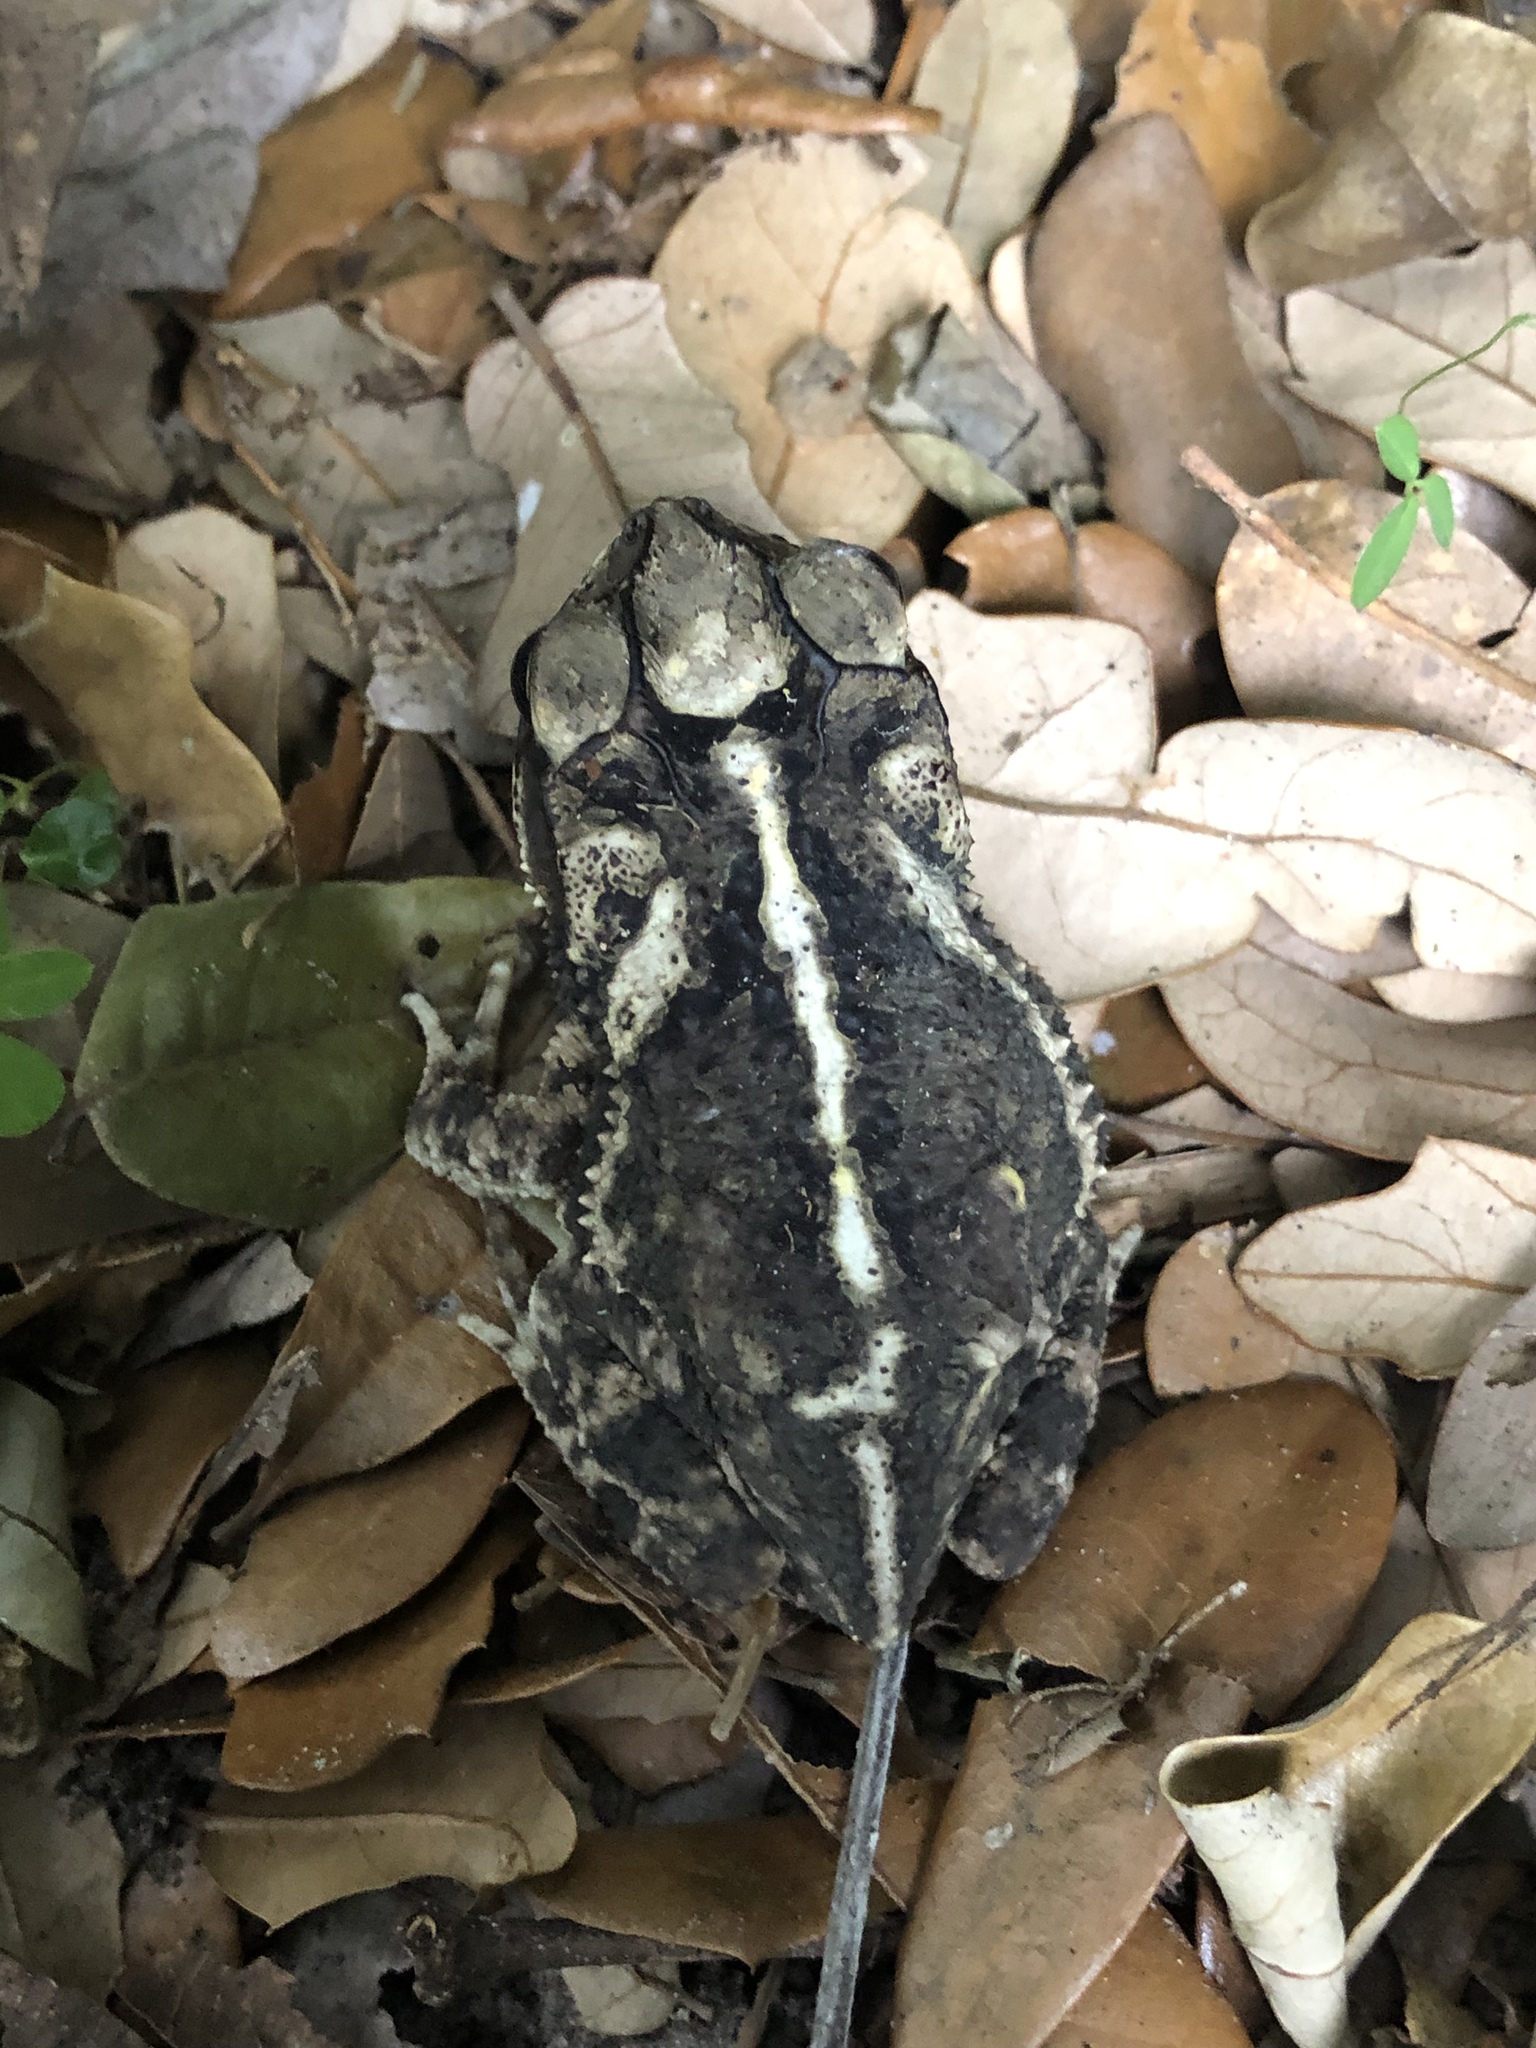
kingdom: Animalia
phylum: Chordata
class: Amphibia
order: Anura
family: Bufonidae
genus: Incilius
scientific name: Incilius nebulifer
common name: Gulf coast toad
